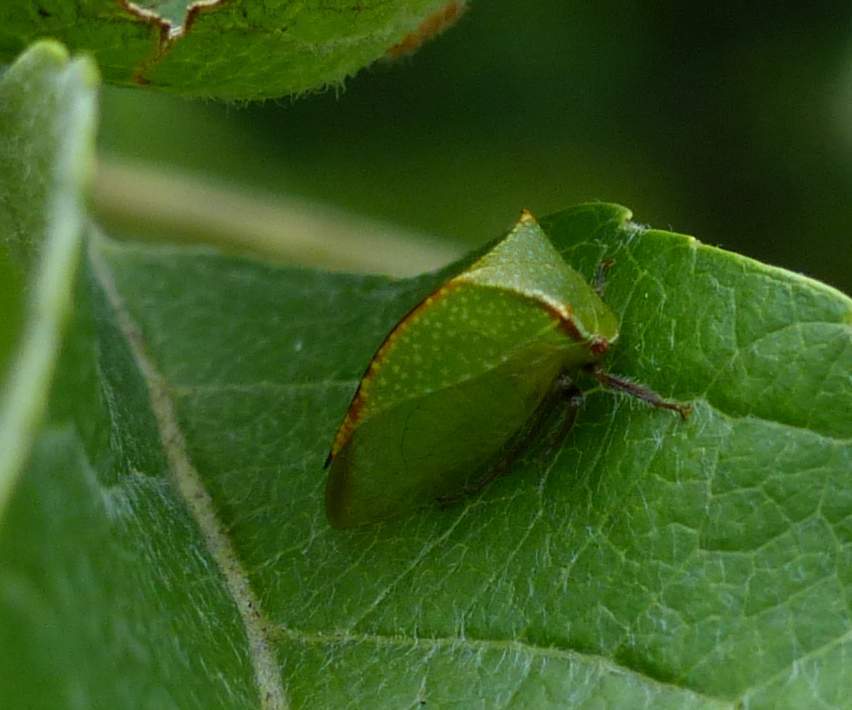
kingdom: Animalia
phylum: Arthropoda
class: Insecta
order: Hemiptera
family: Membracidae
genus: Stictocephala
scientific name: Stictocephala bisonia
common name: American buffalo treehopper
